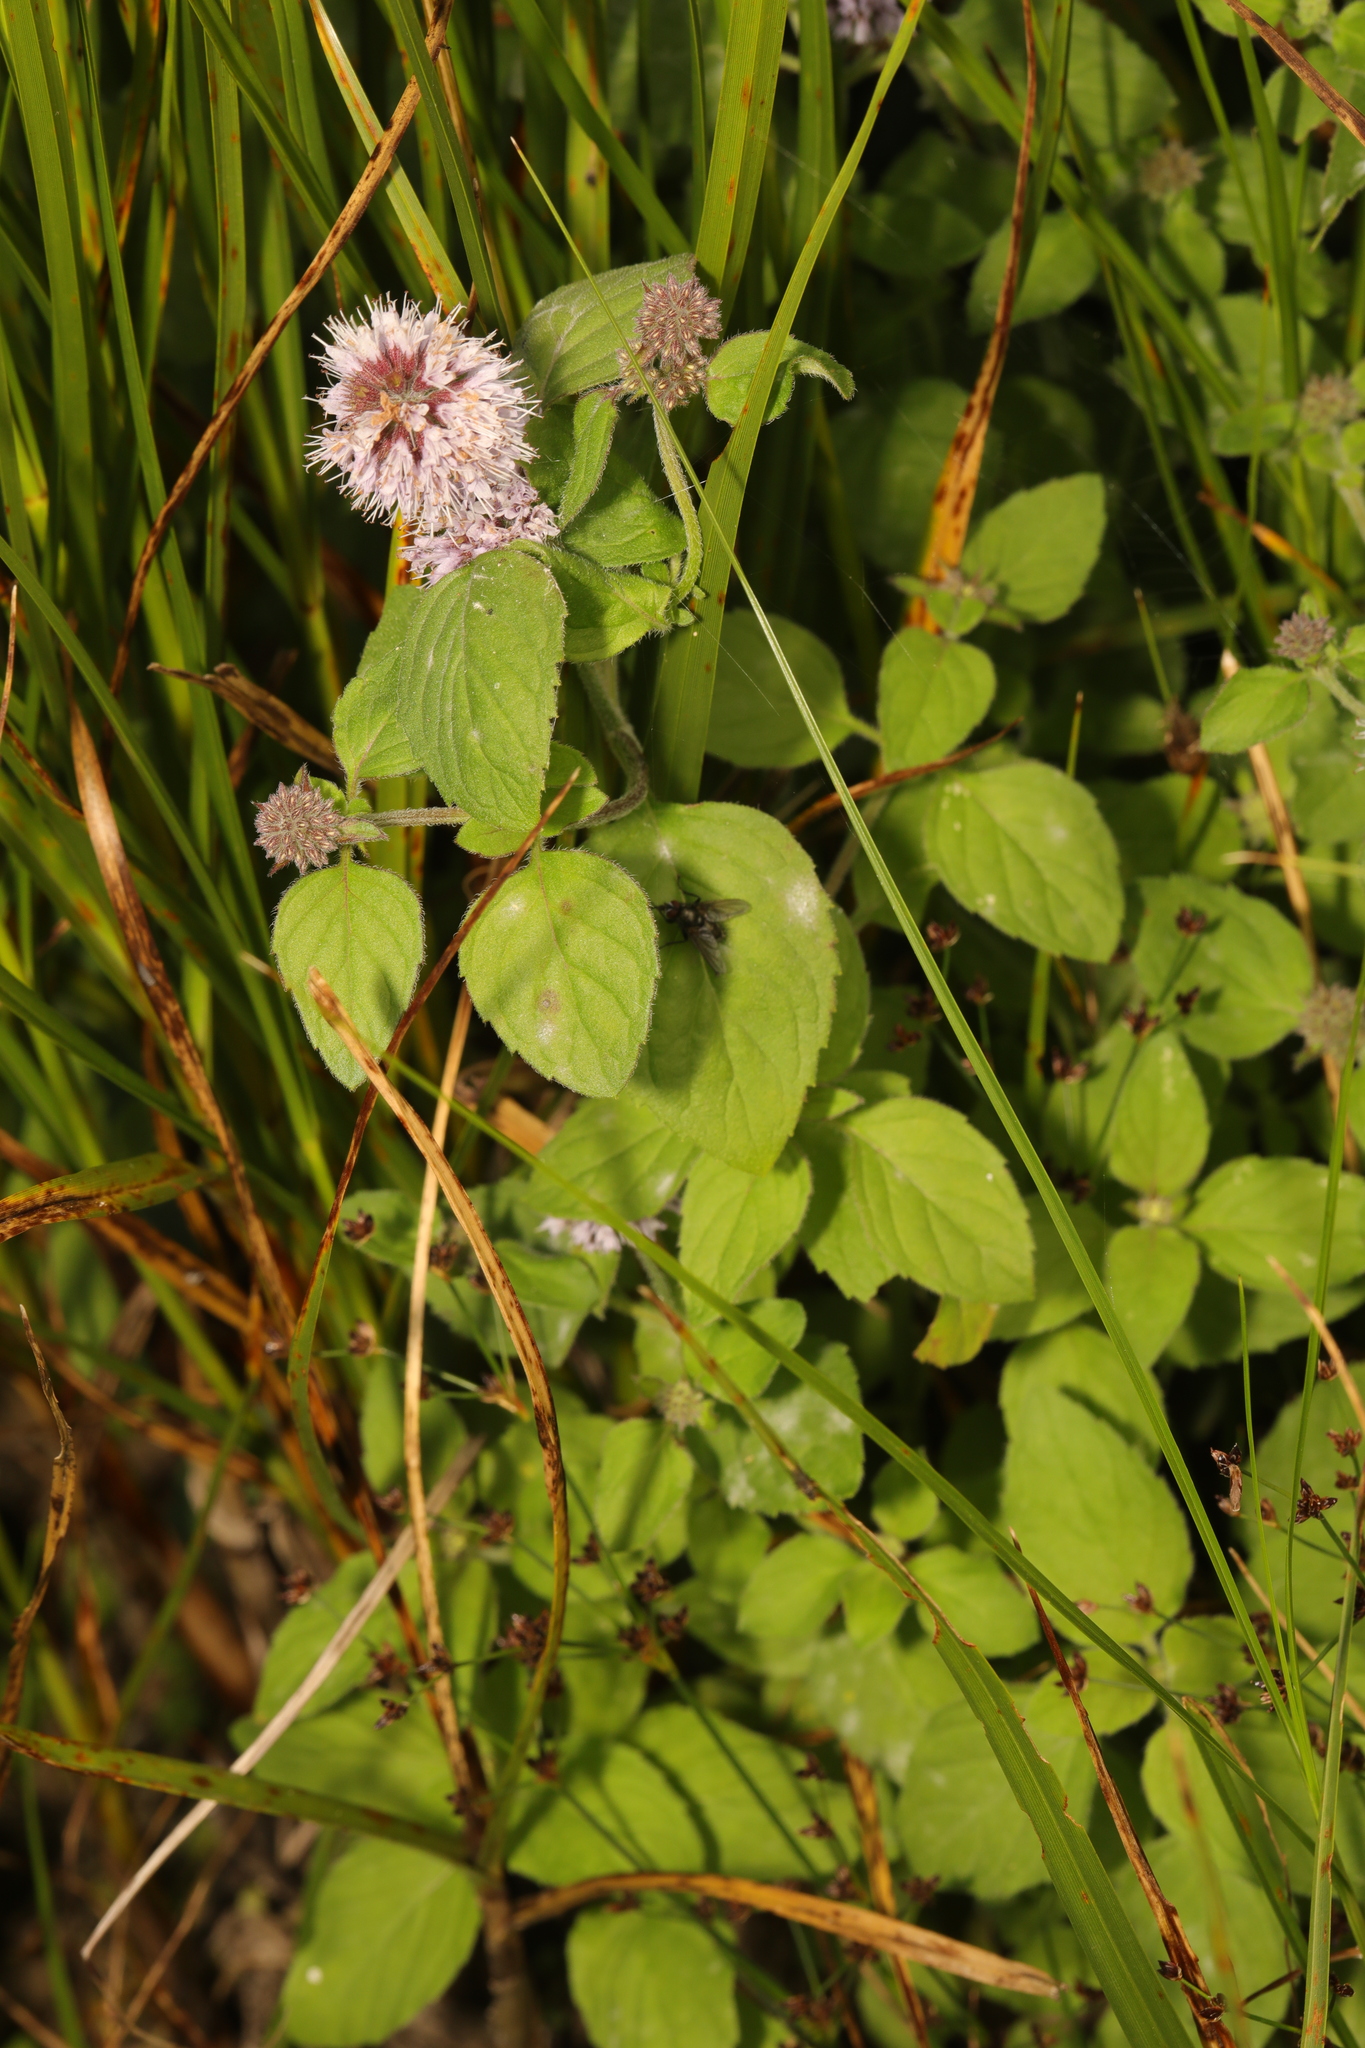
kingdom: Plantae
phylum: Tracheophyta
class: Magnoliopsida
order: Lamiales
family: Lamiaceae
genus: Mentha
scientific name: Mentha aquatica
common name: Water mint
